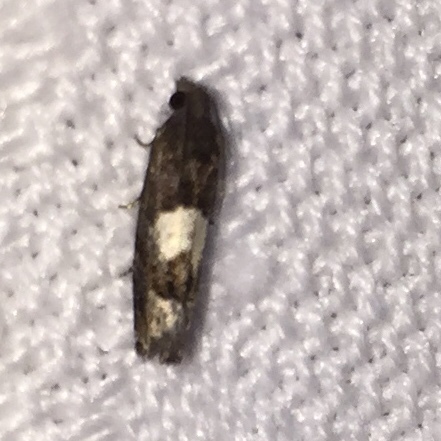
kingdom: Animalia
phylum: Arthropoda
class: Insecta
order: Lepidoptera
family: Tortricidae
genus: Eucosma
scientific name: Eucosma parmatana
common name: Aster eucosma moth
